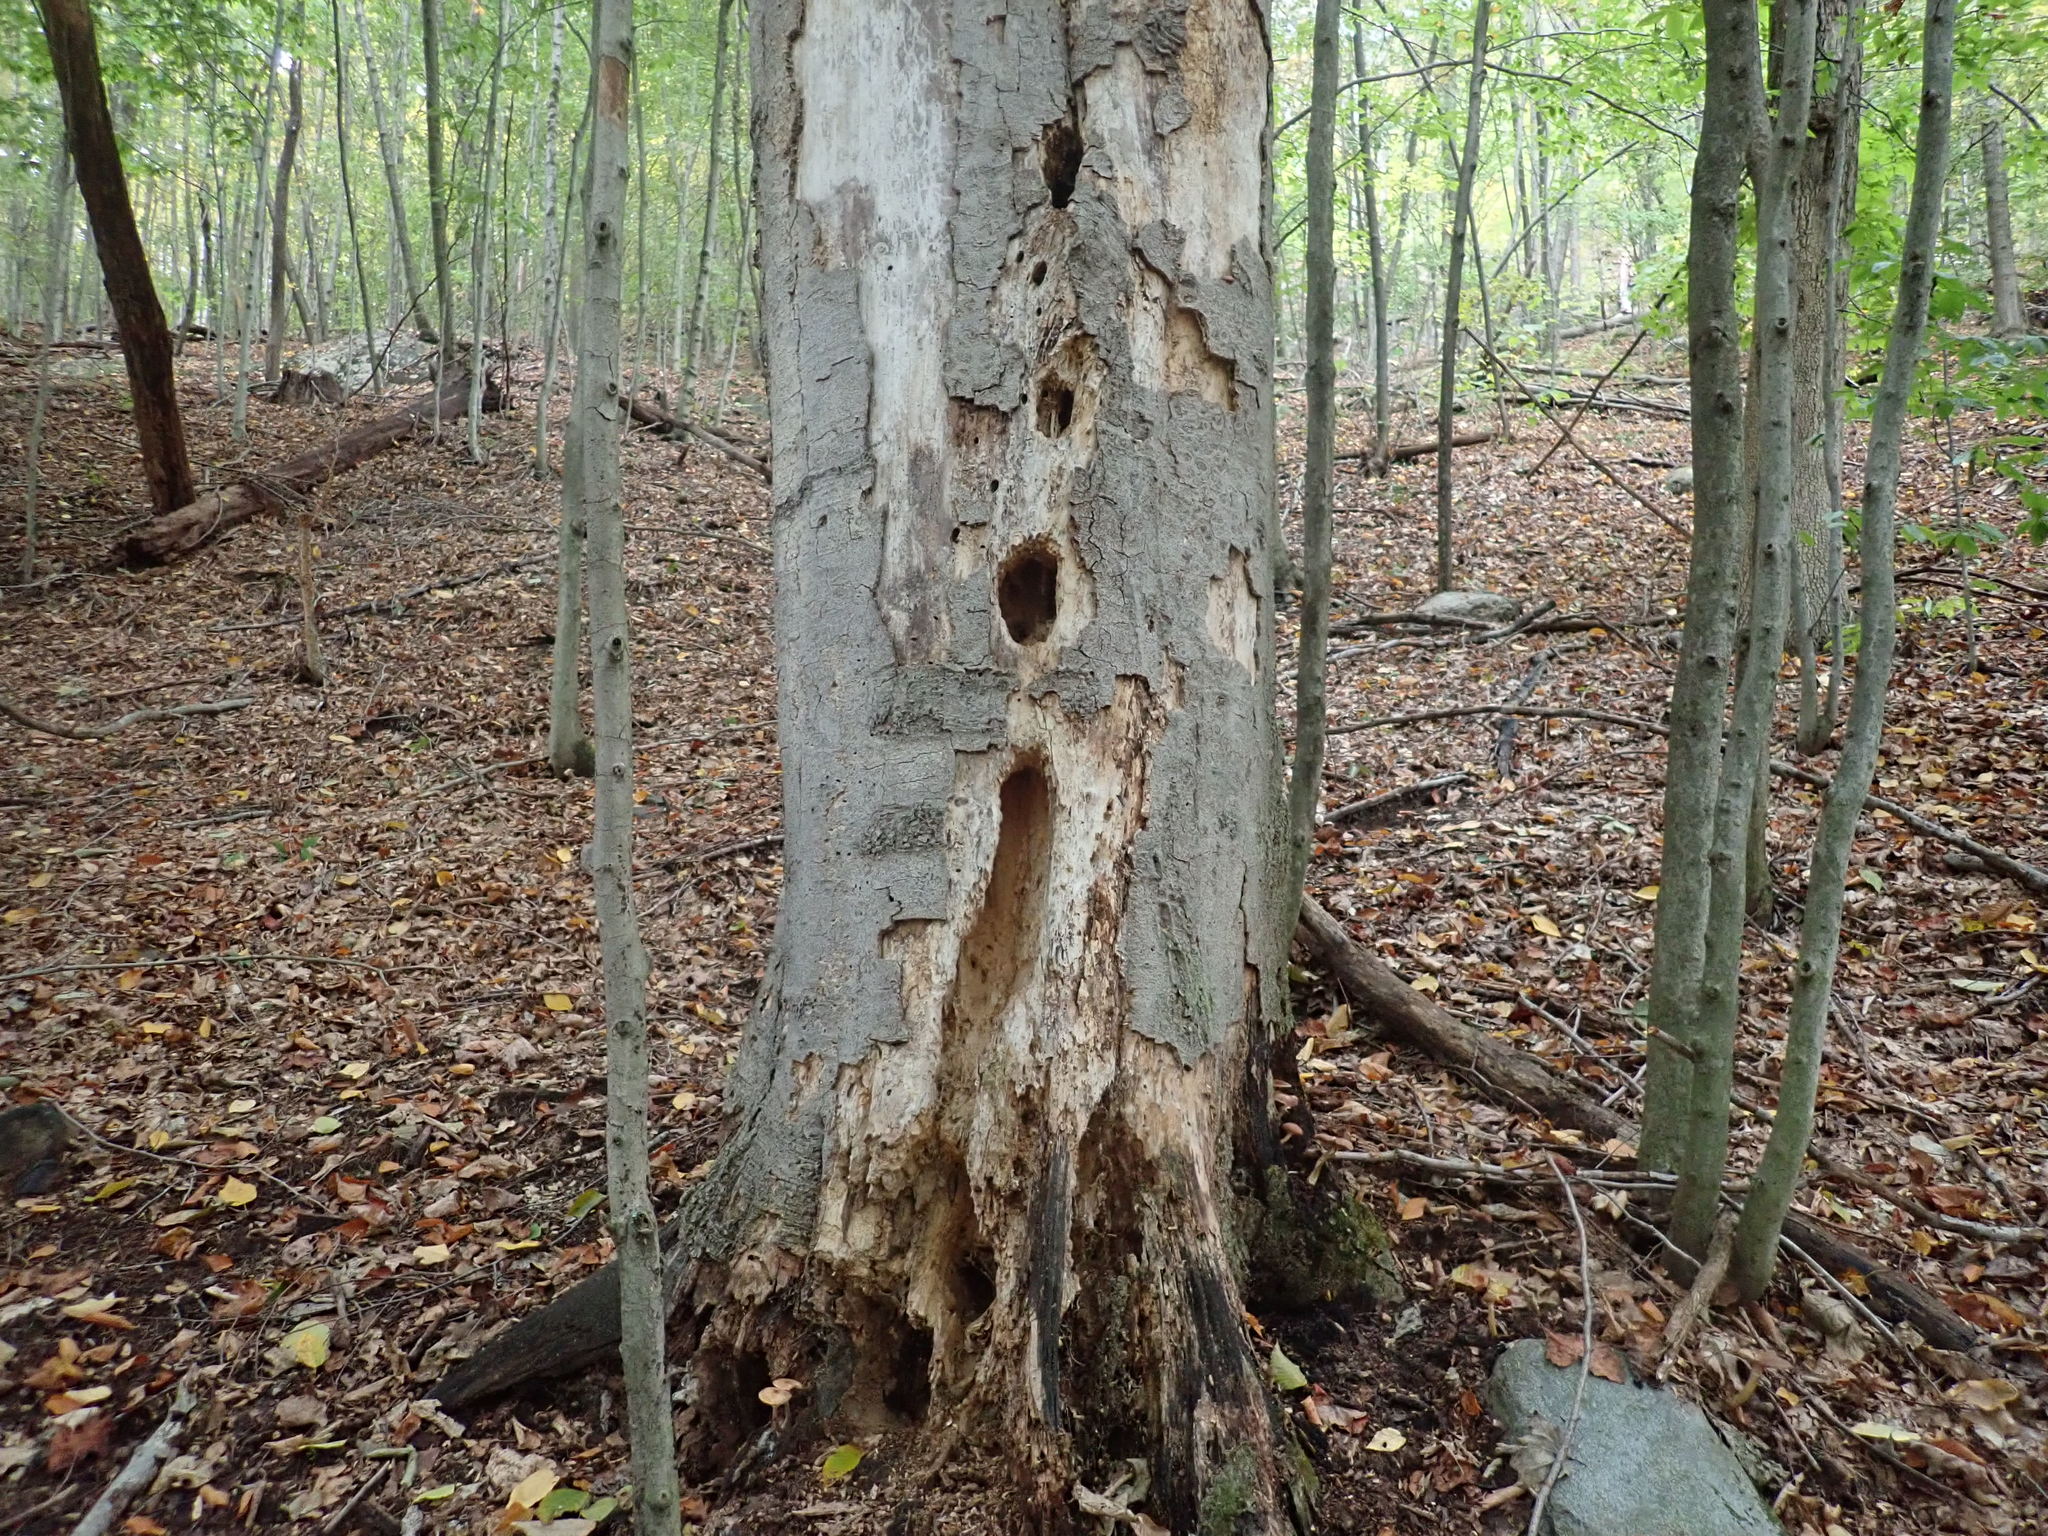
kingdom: Animalia
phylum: Chordata
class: Aves
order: Piciformes
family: Picidae
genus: Dryocopus
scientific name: Dryocopus pileatus
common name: Pileated woodpecker
